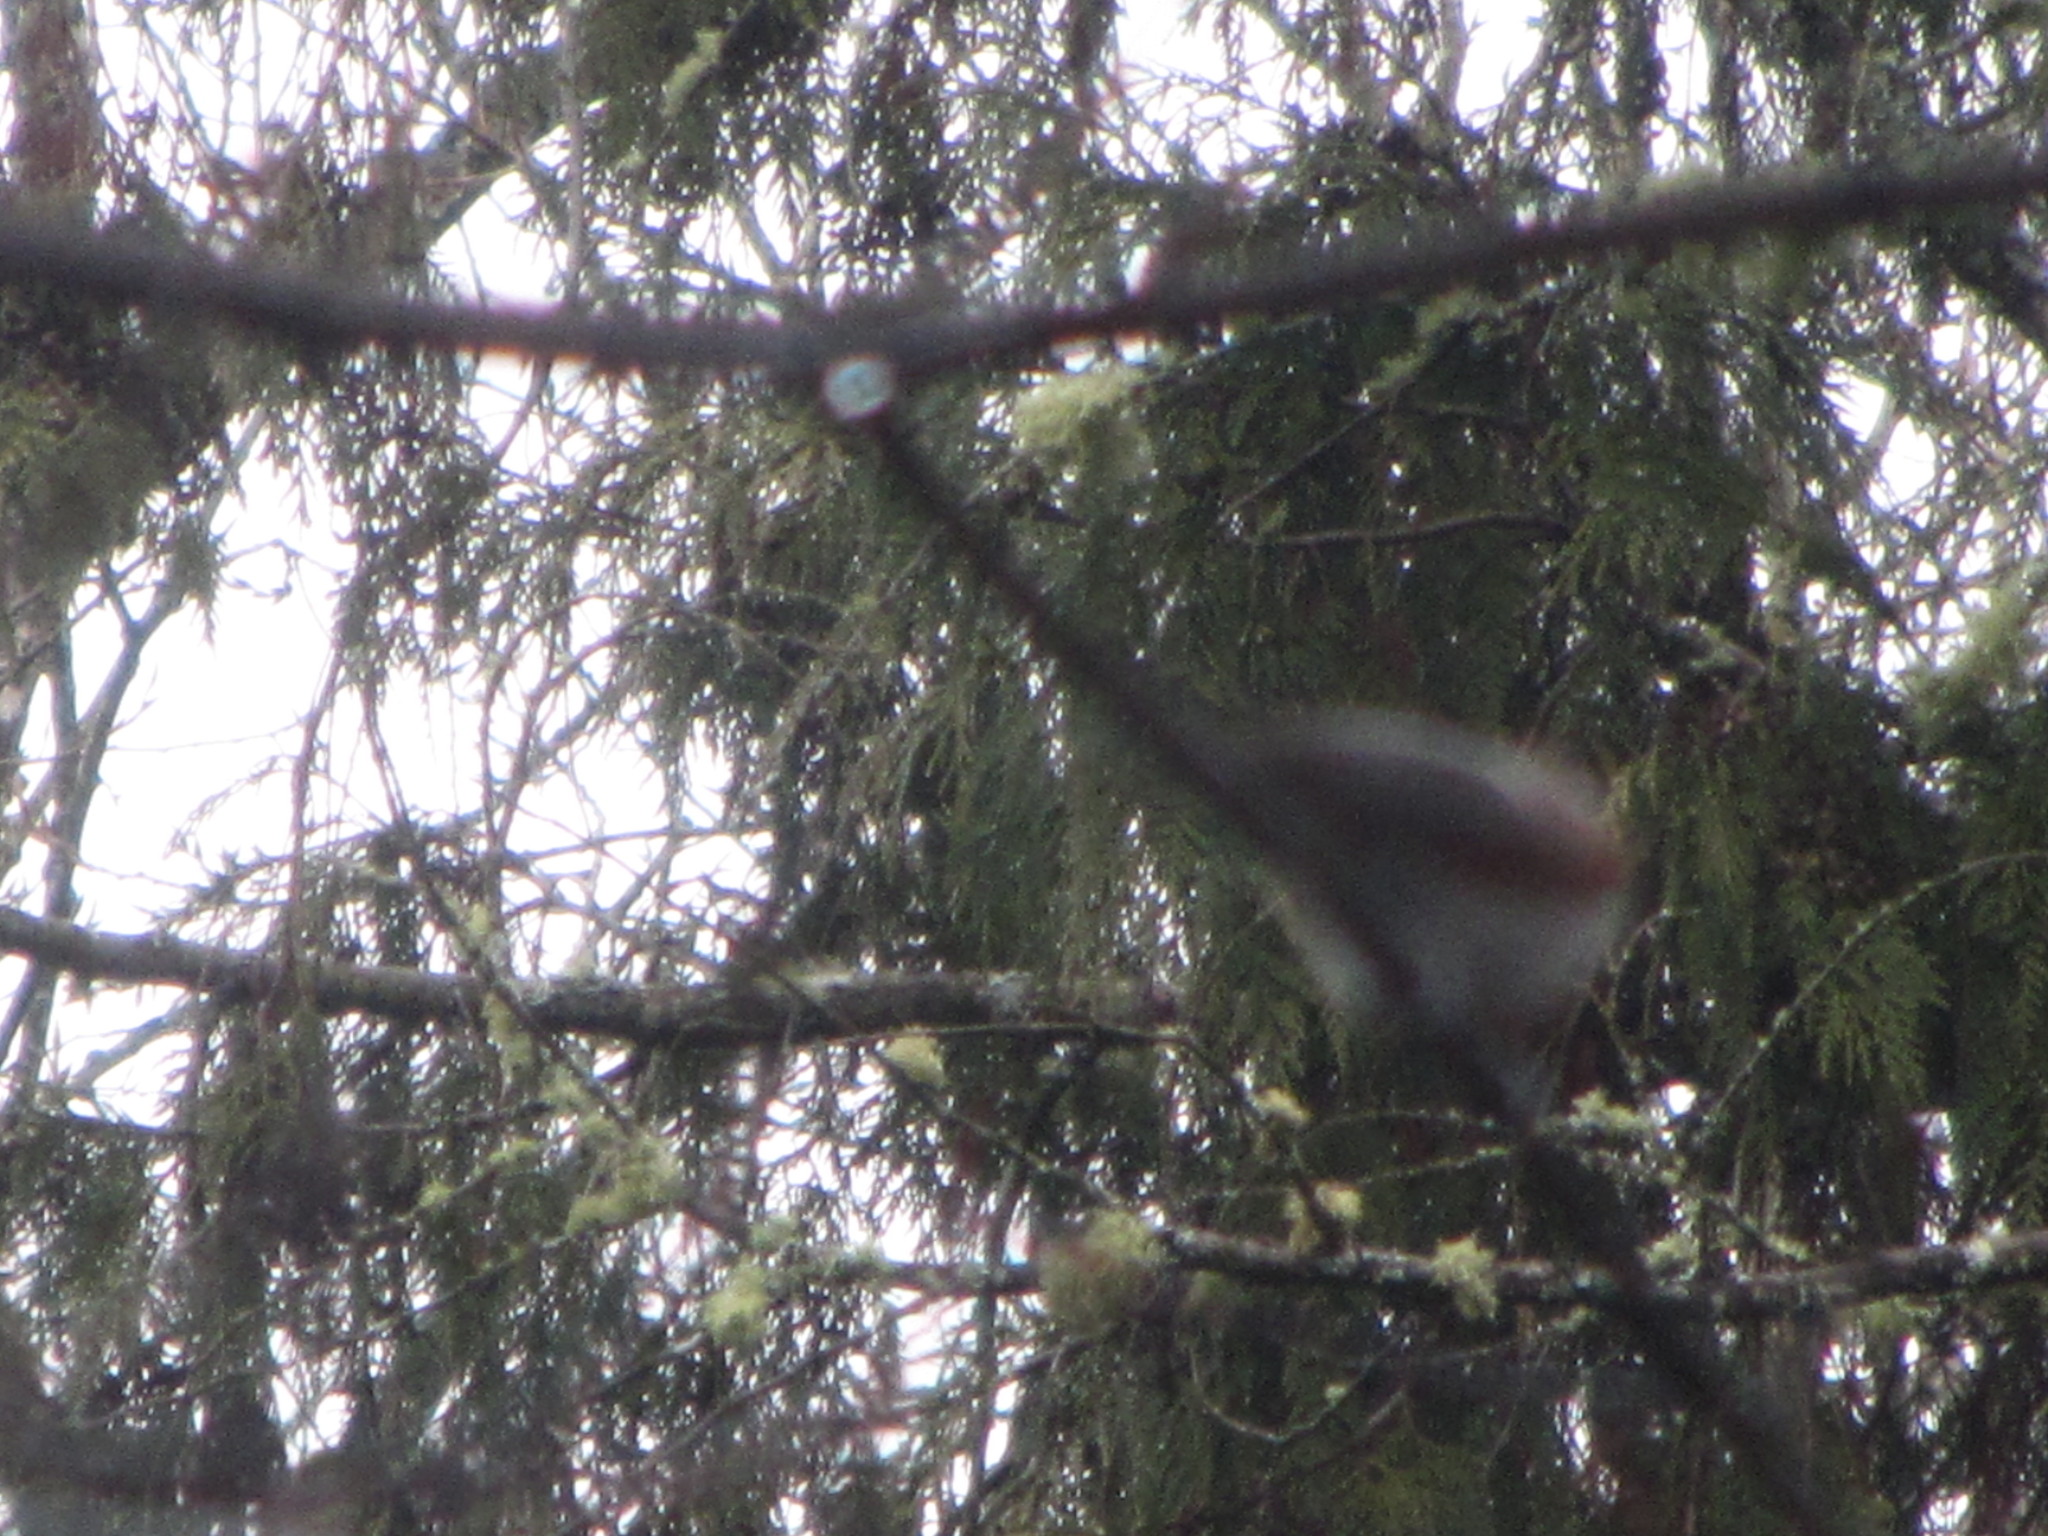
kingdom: Animalia
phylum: Chordata
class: Aves
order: Passeriformes
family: Paridae
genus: Poecile
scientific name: Poecile rufescens
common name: Chestnut-backed chickadee
